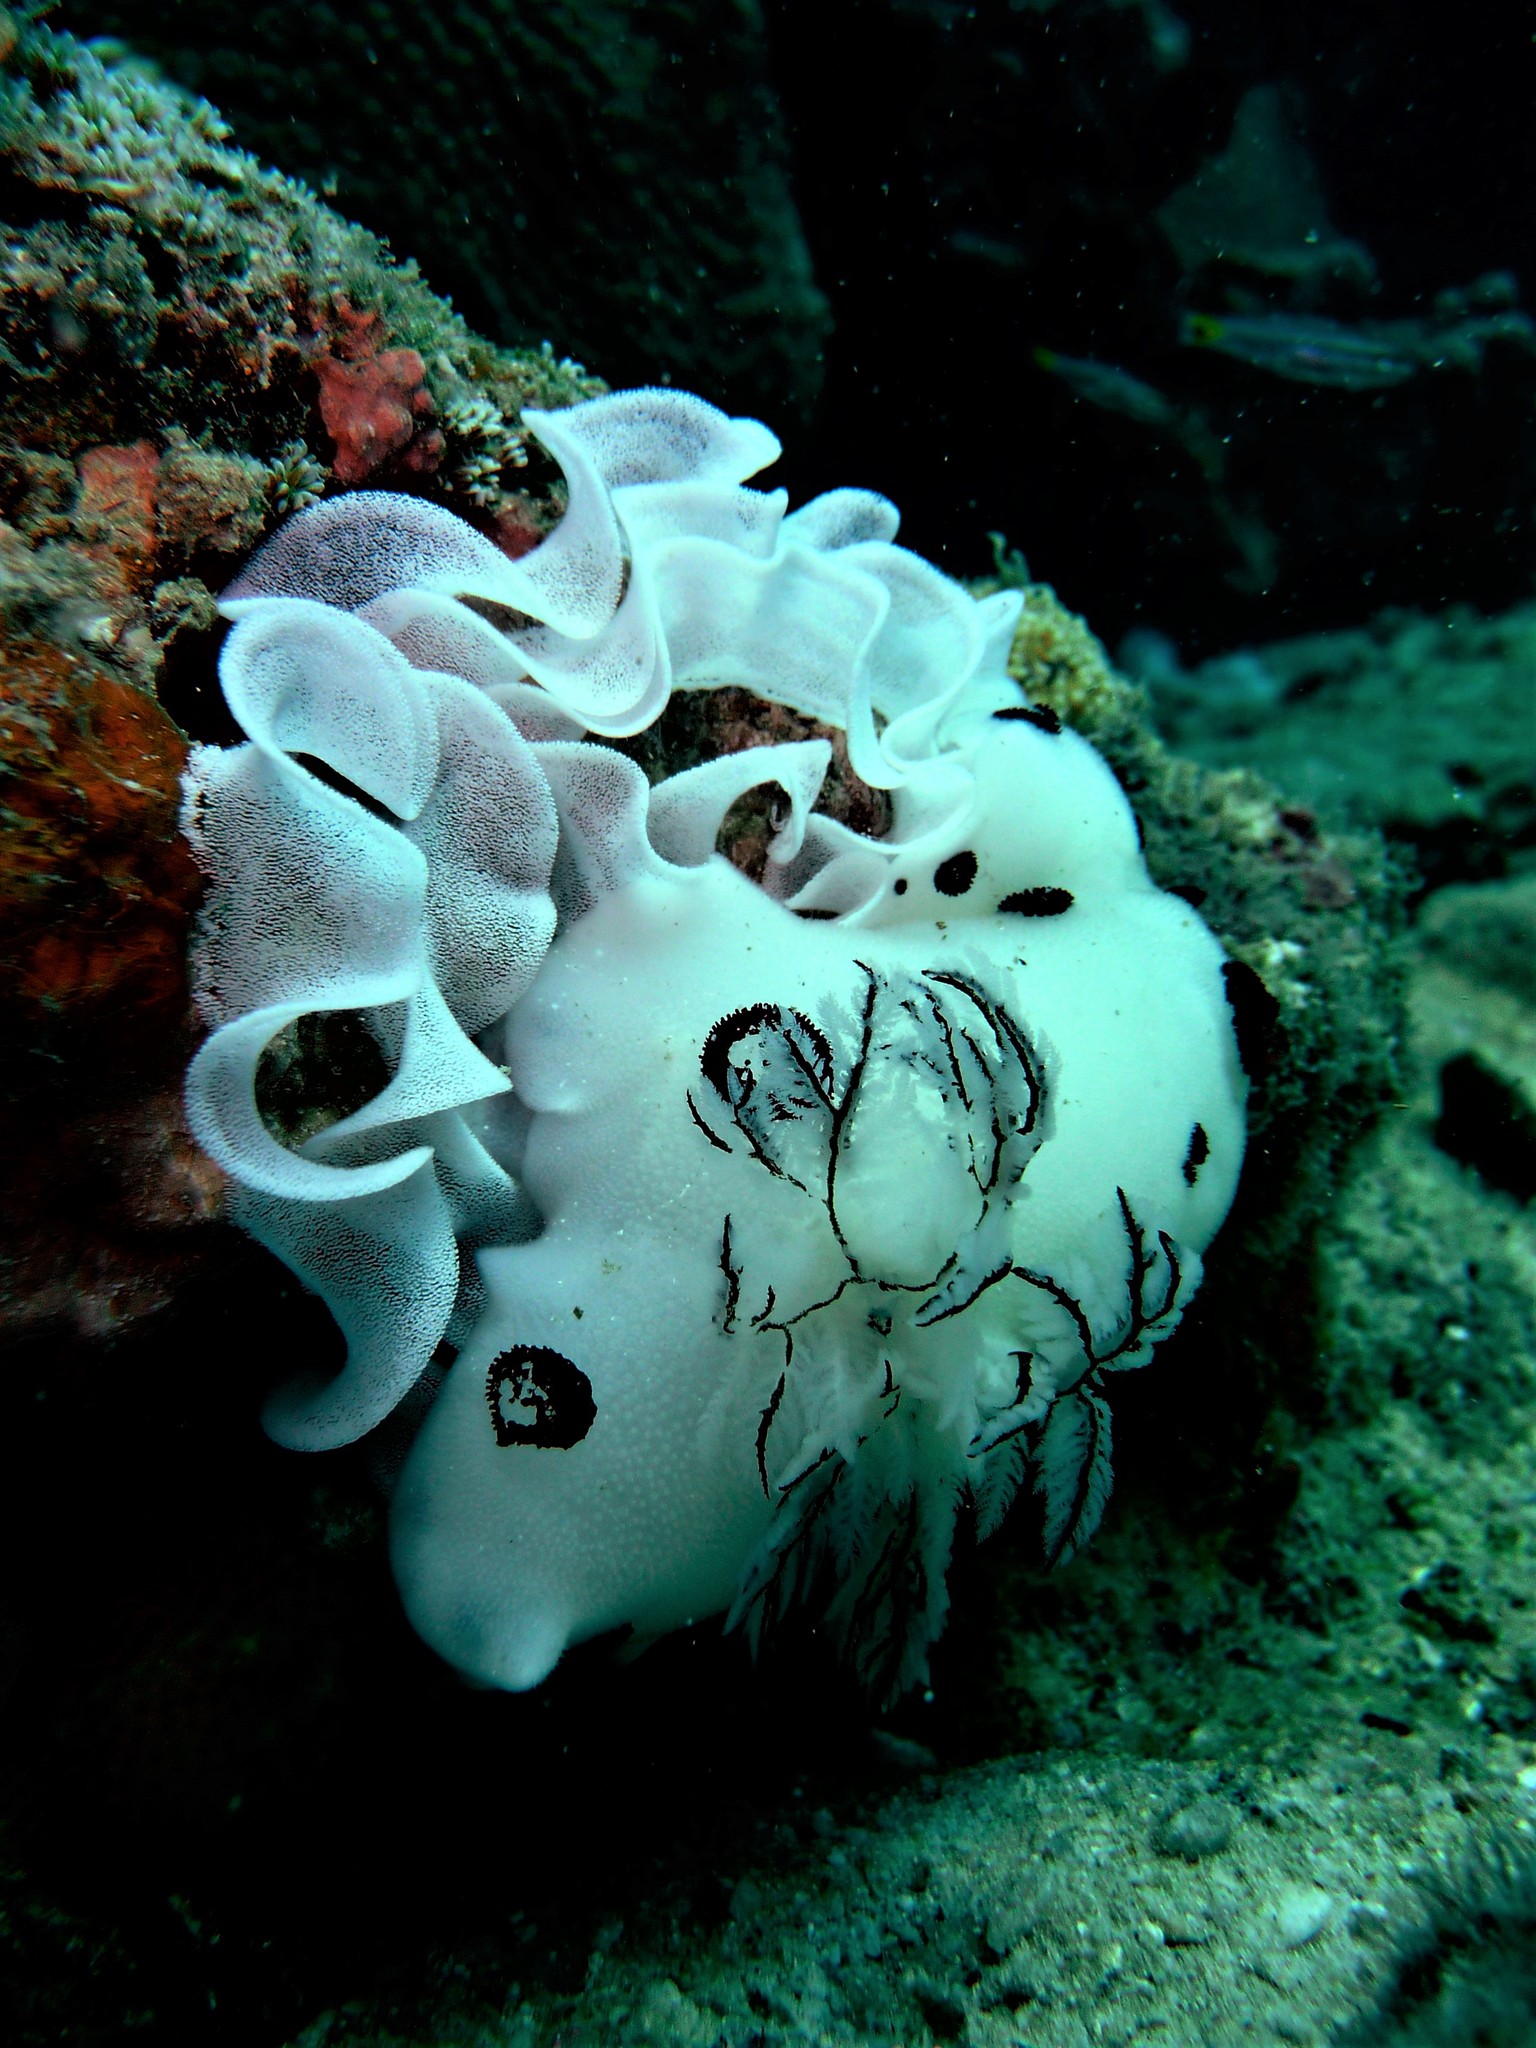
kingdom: Animalia
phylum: Mollusca
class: Gastropoda
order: Nudibranchia
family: Discodorididae
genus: Jorunna
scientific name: Jorunna funebris
